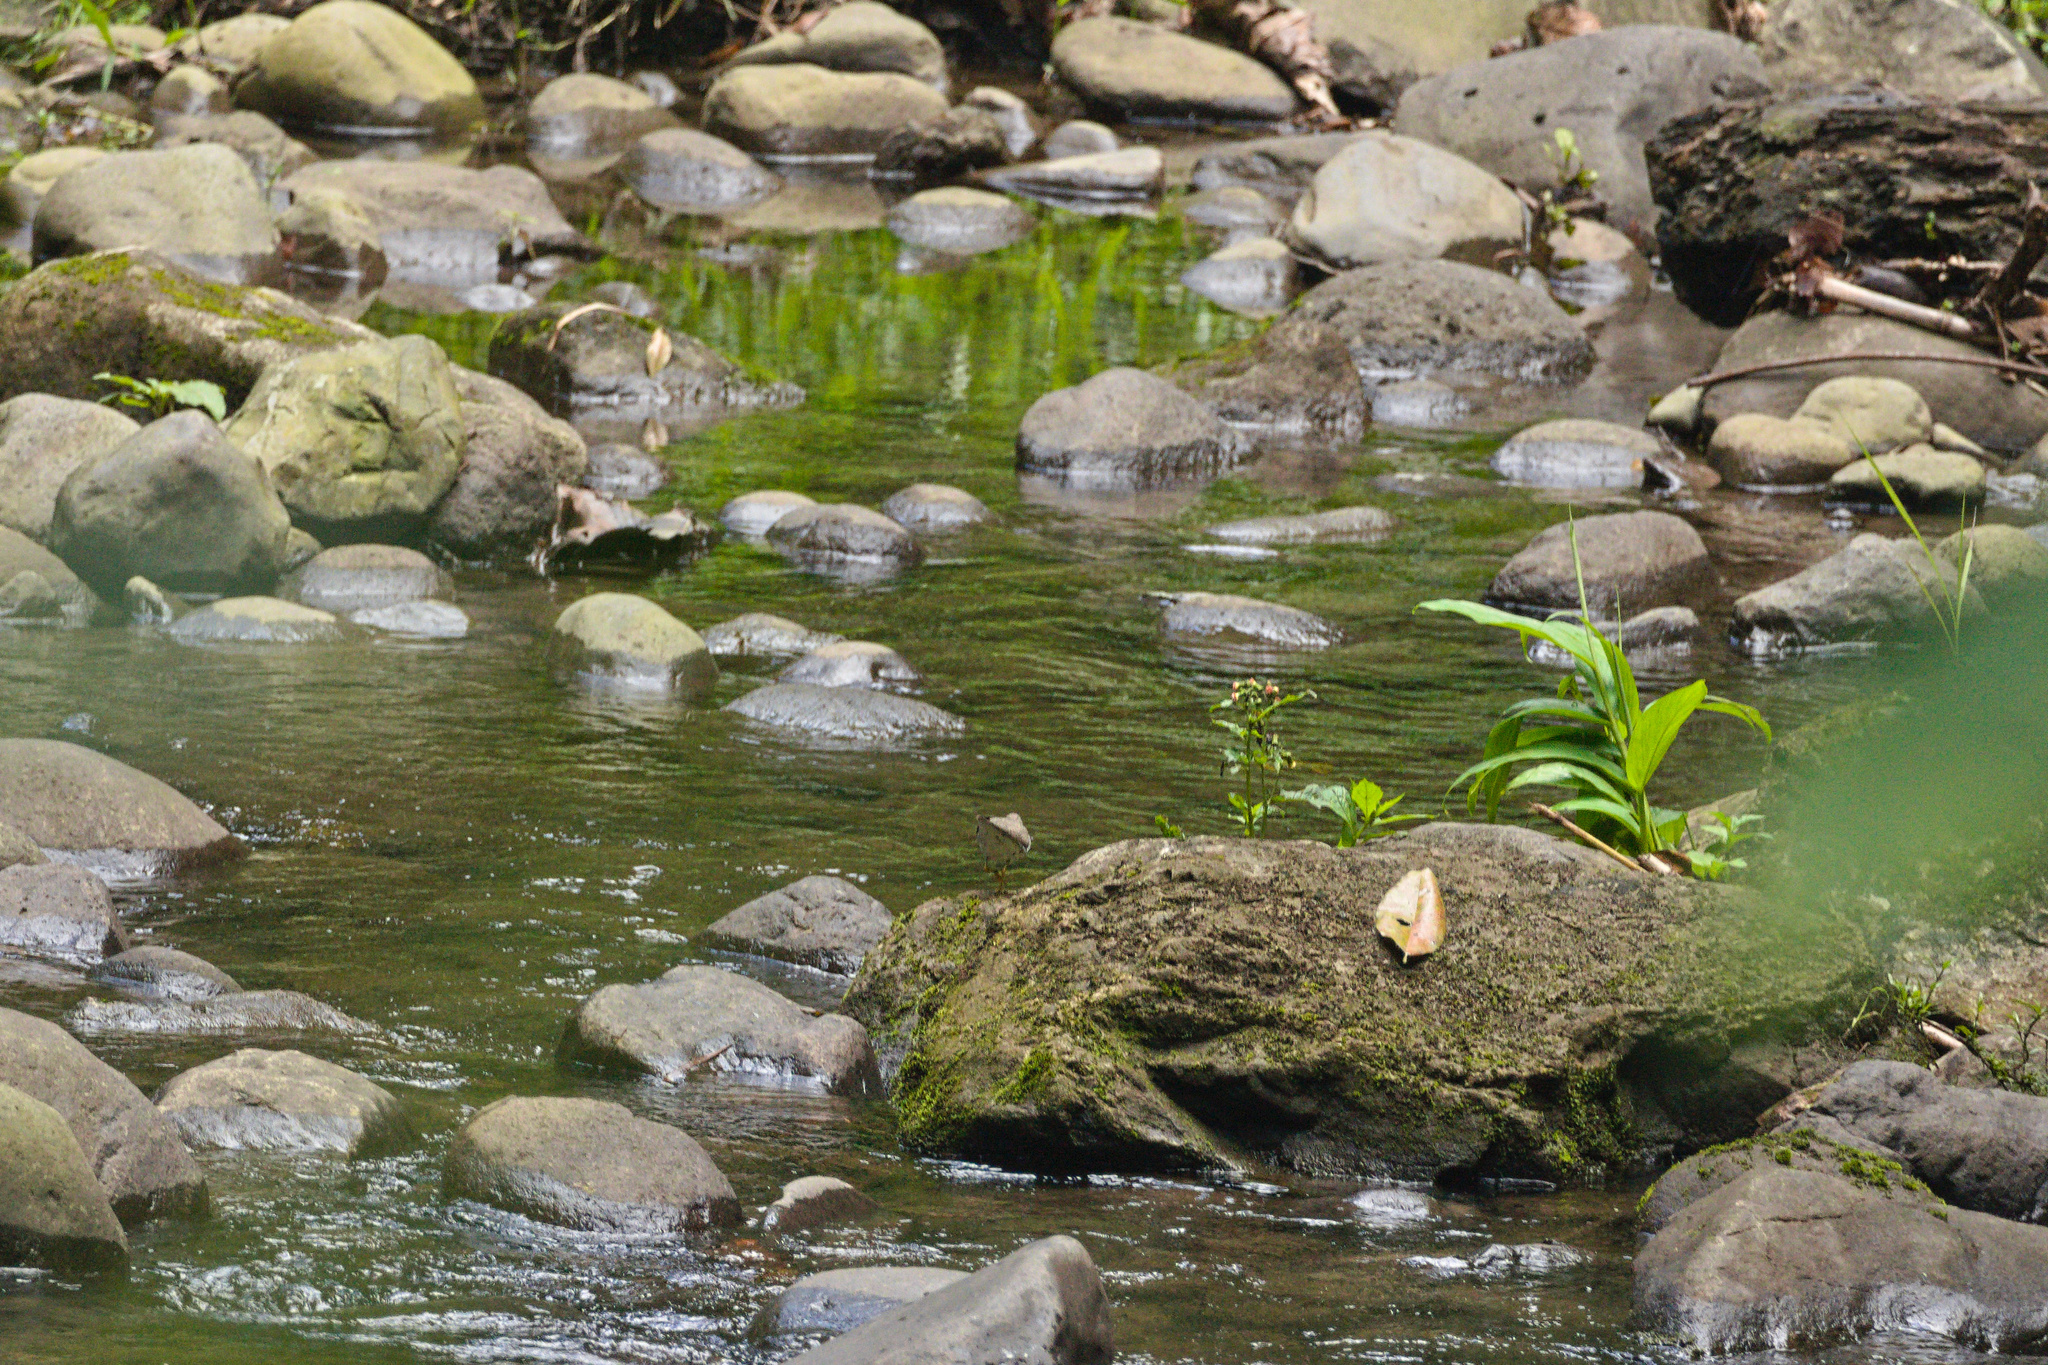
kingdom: Animalia
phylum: Chordata
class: Aves
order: Charadriiformes
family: Scolopacidae
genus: Actitis
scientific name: Actitis macularius
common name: Spotted sandpiper
